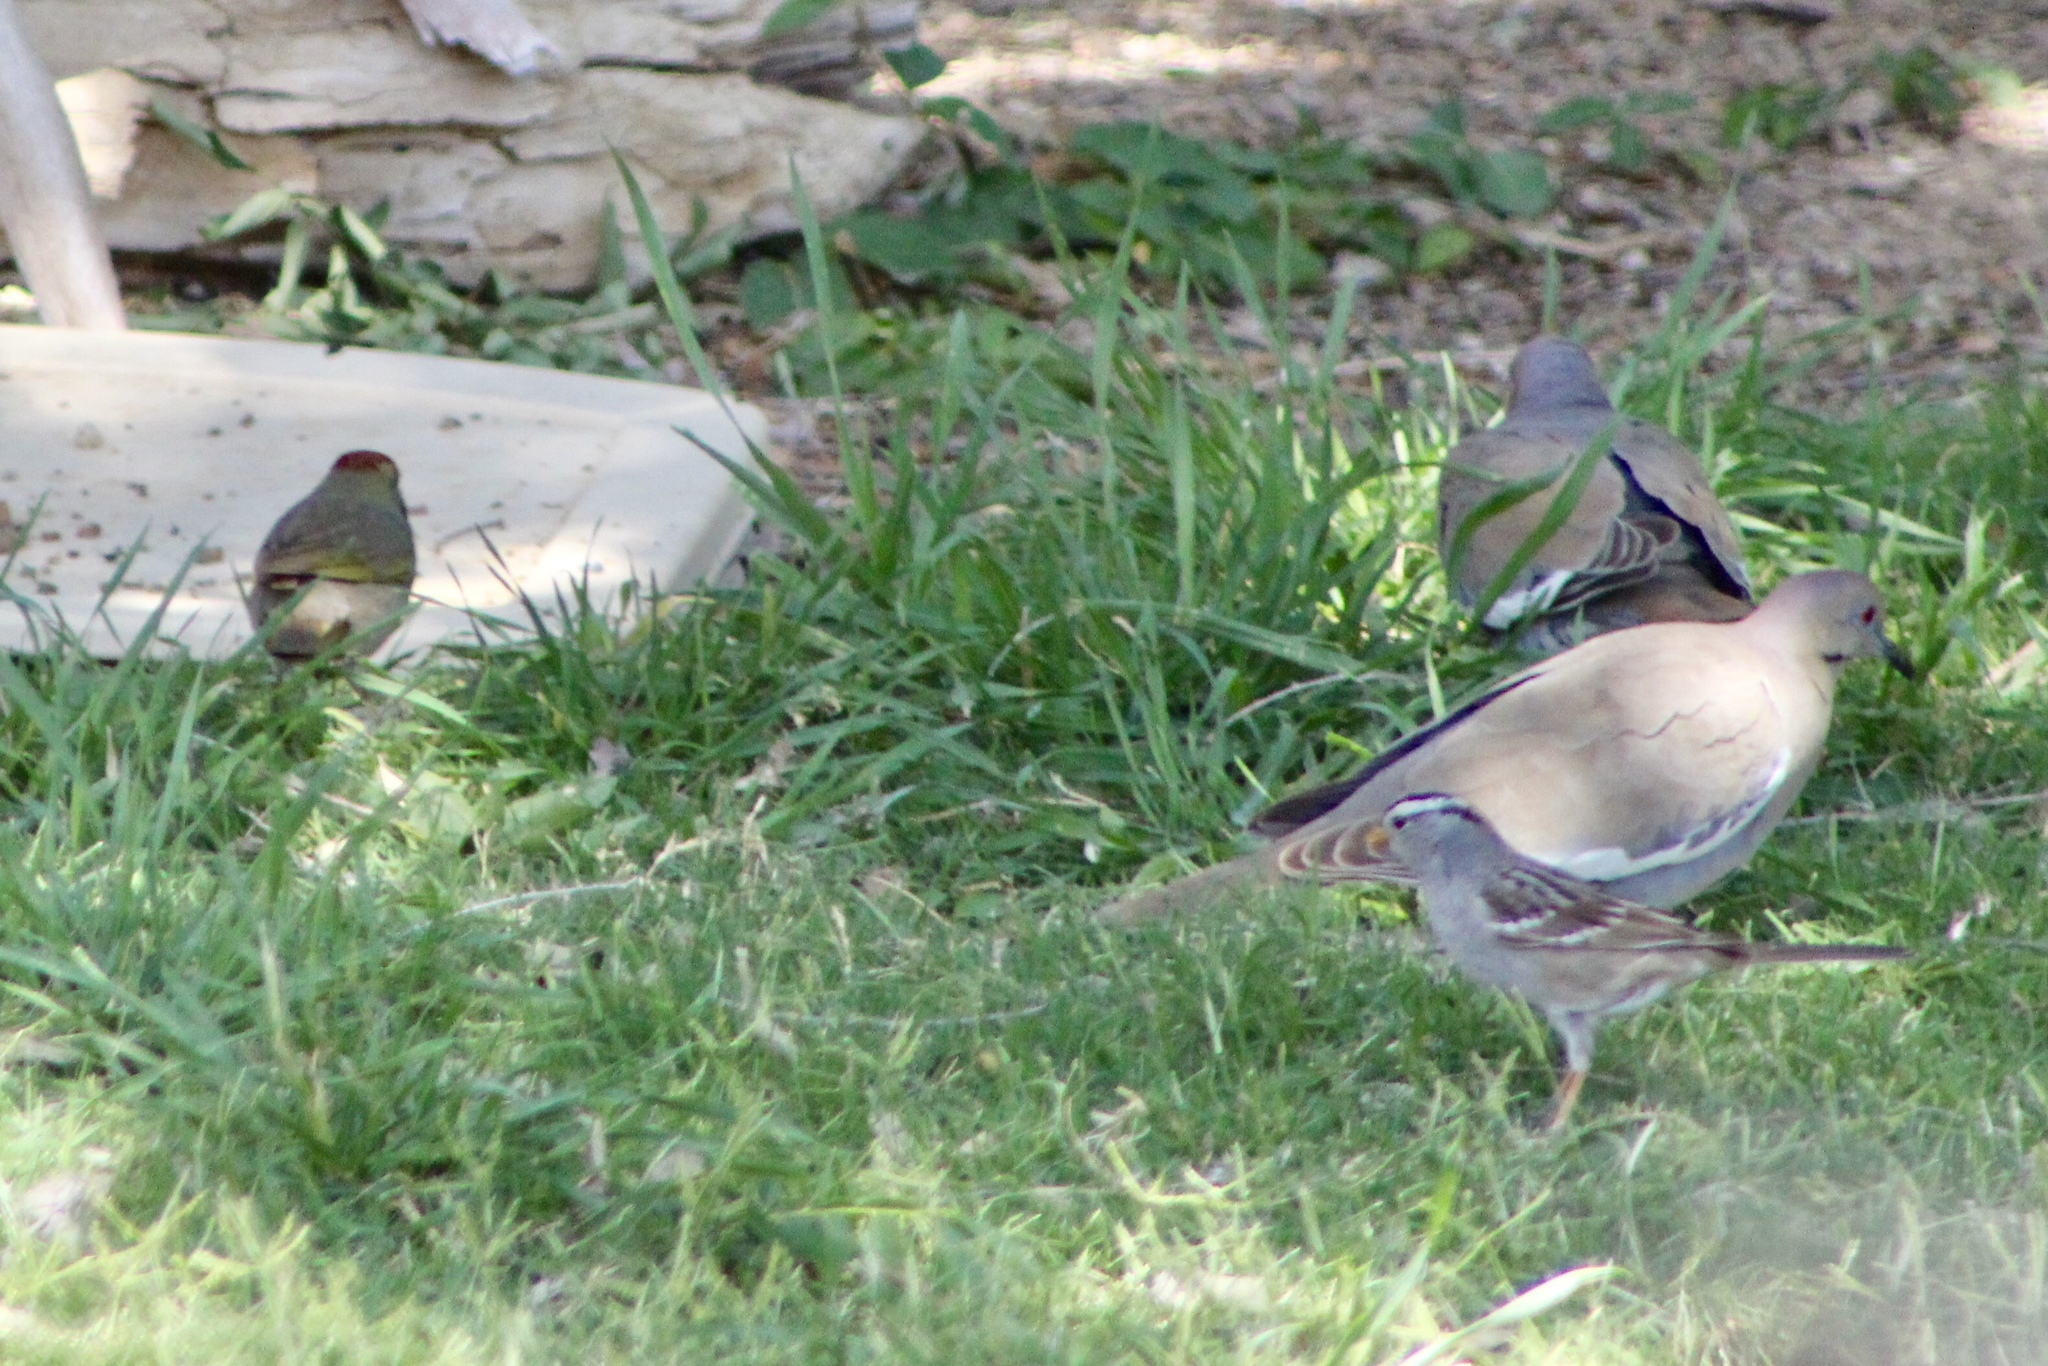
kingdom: Animalia
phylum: Chordata
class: Aves
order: Passeriformes
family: Passerellidae
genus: Pipilo
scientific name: Pipilo chlorurus
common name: Green-tailed towhee
